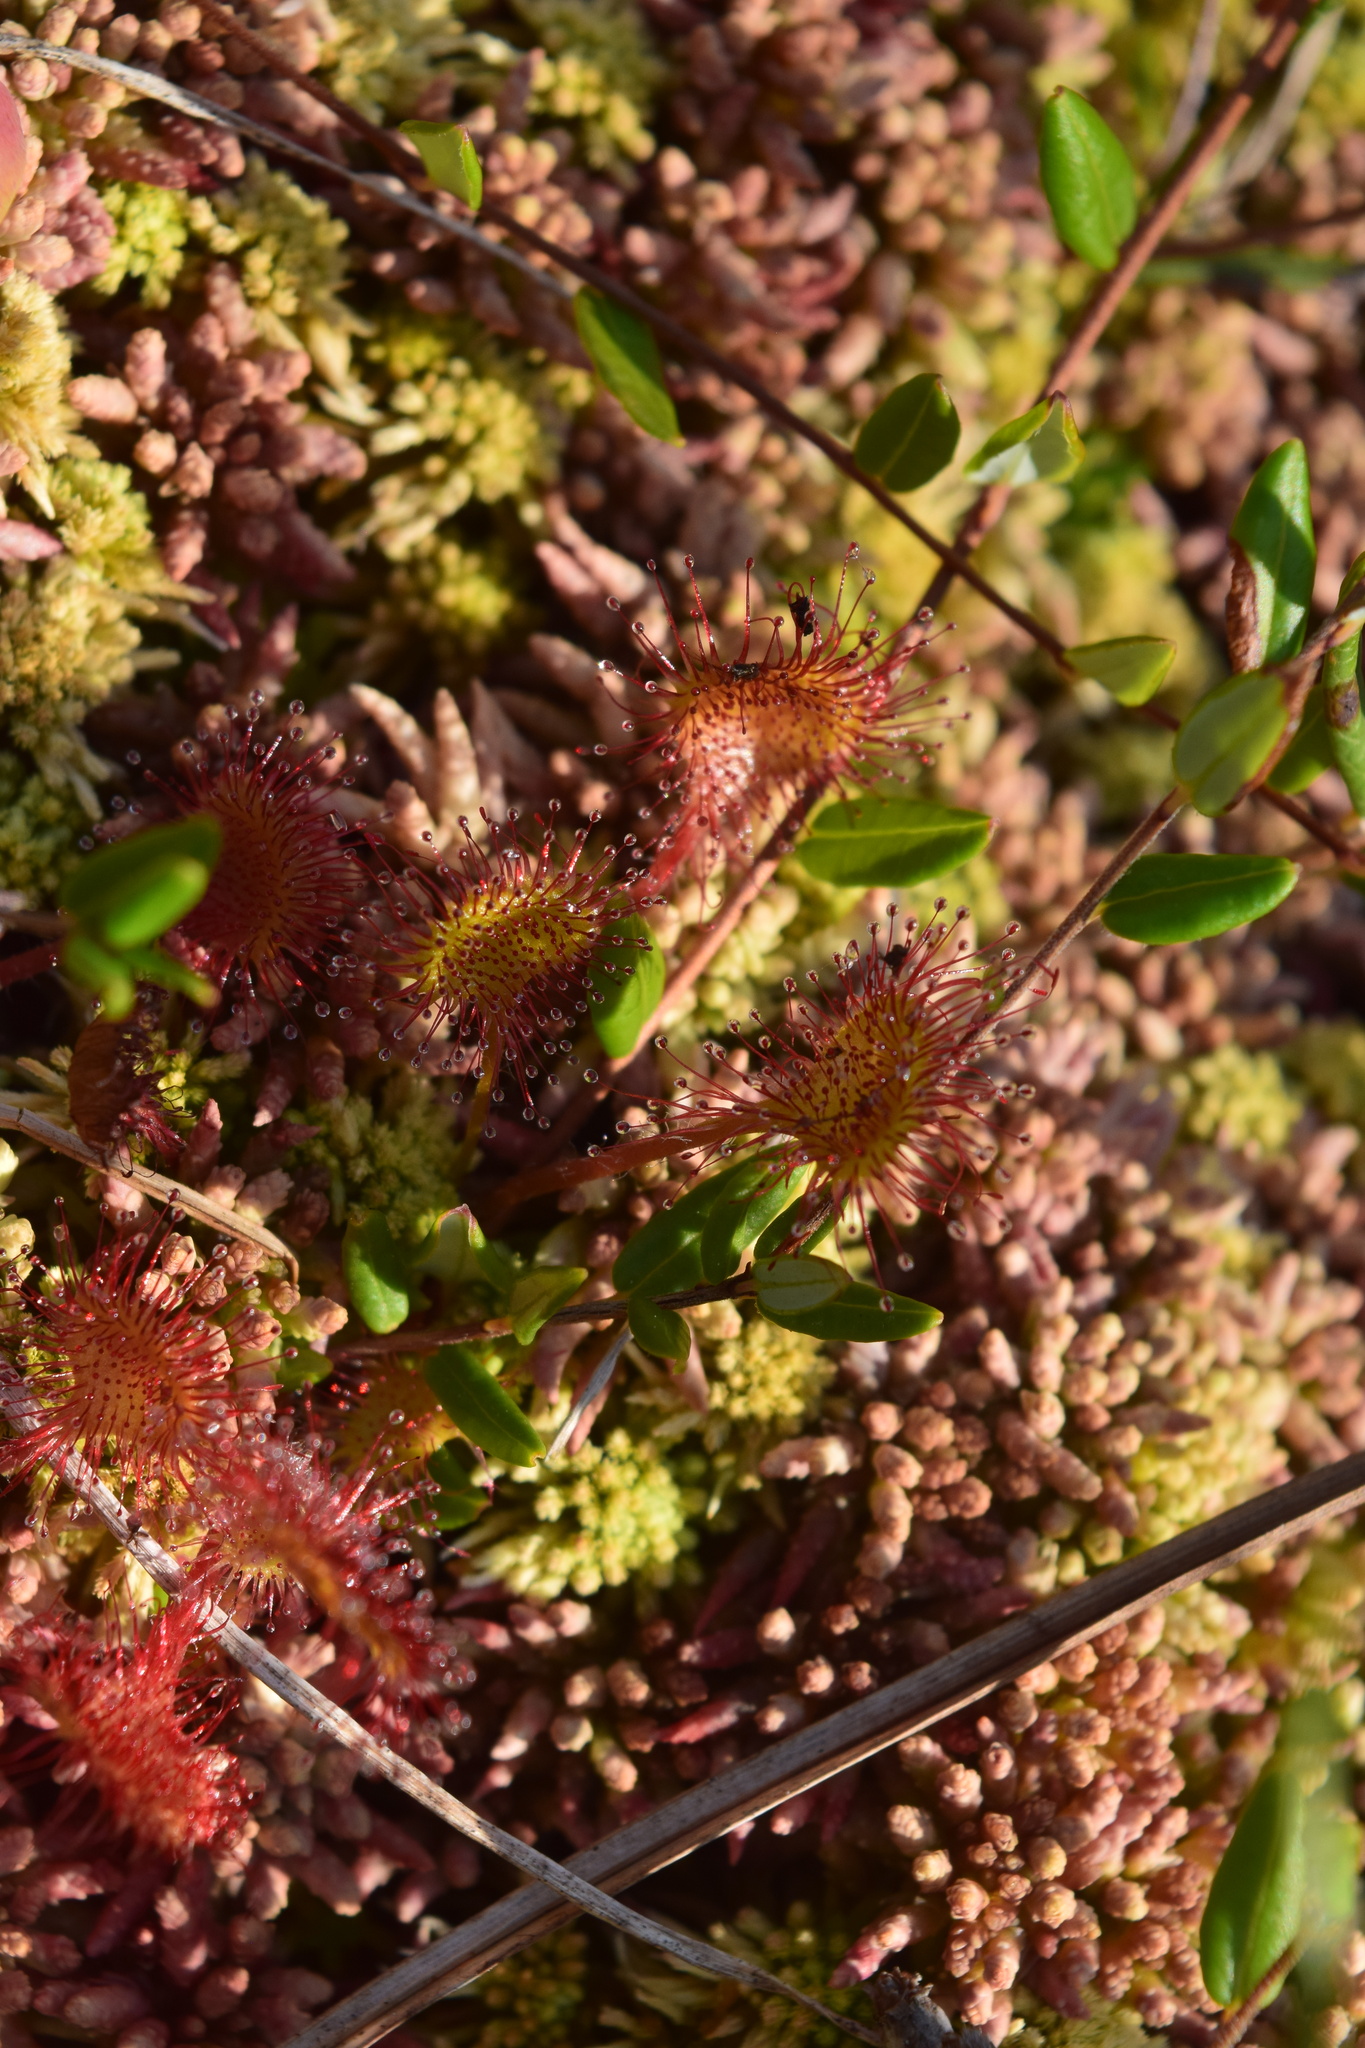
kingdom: Plantae
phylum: Tracheophyta
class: Magnoliopsida
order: Caryophyllales
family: Droseraceae
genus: Drosera
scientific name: Drosera rotundifolia
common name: Round-leaved sundew
